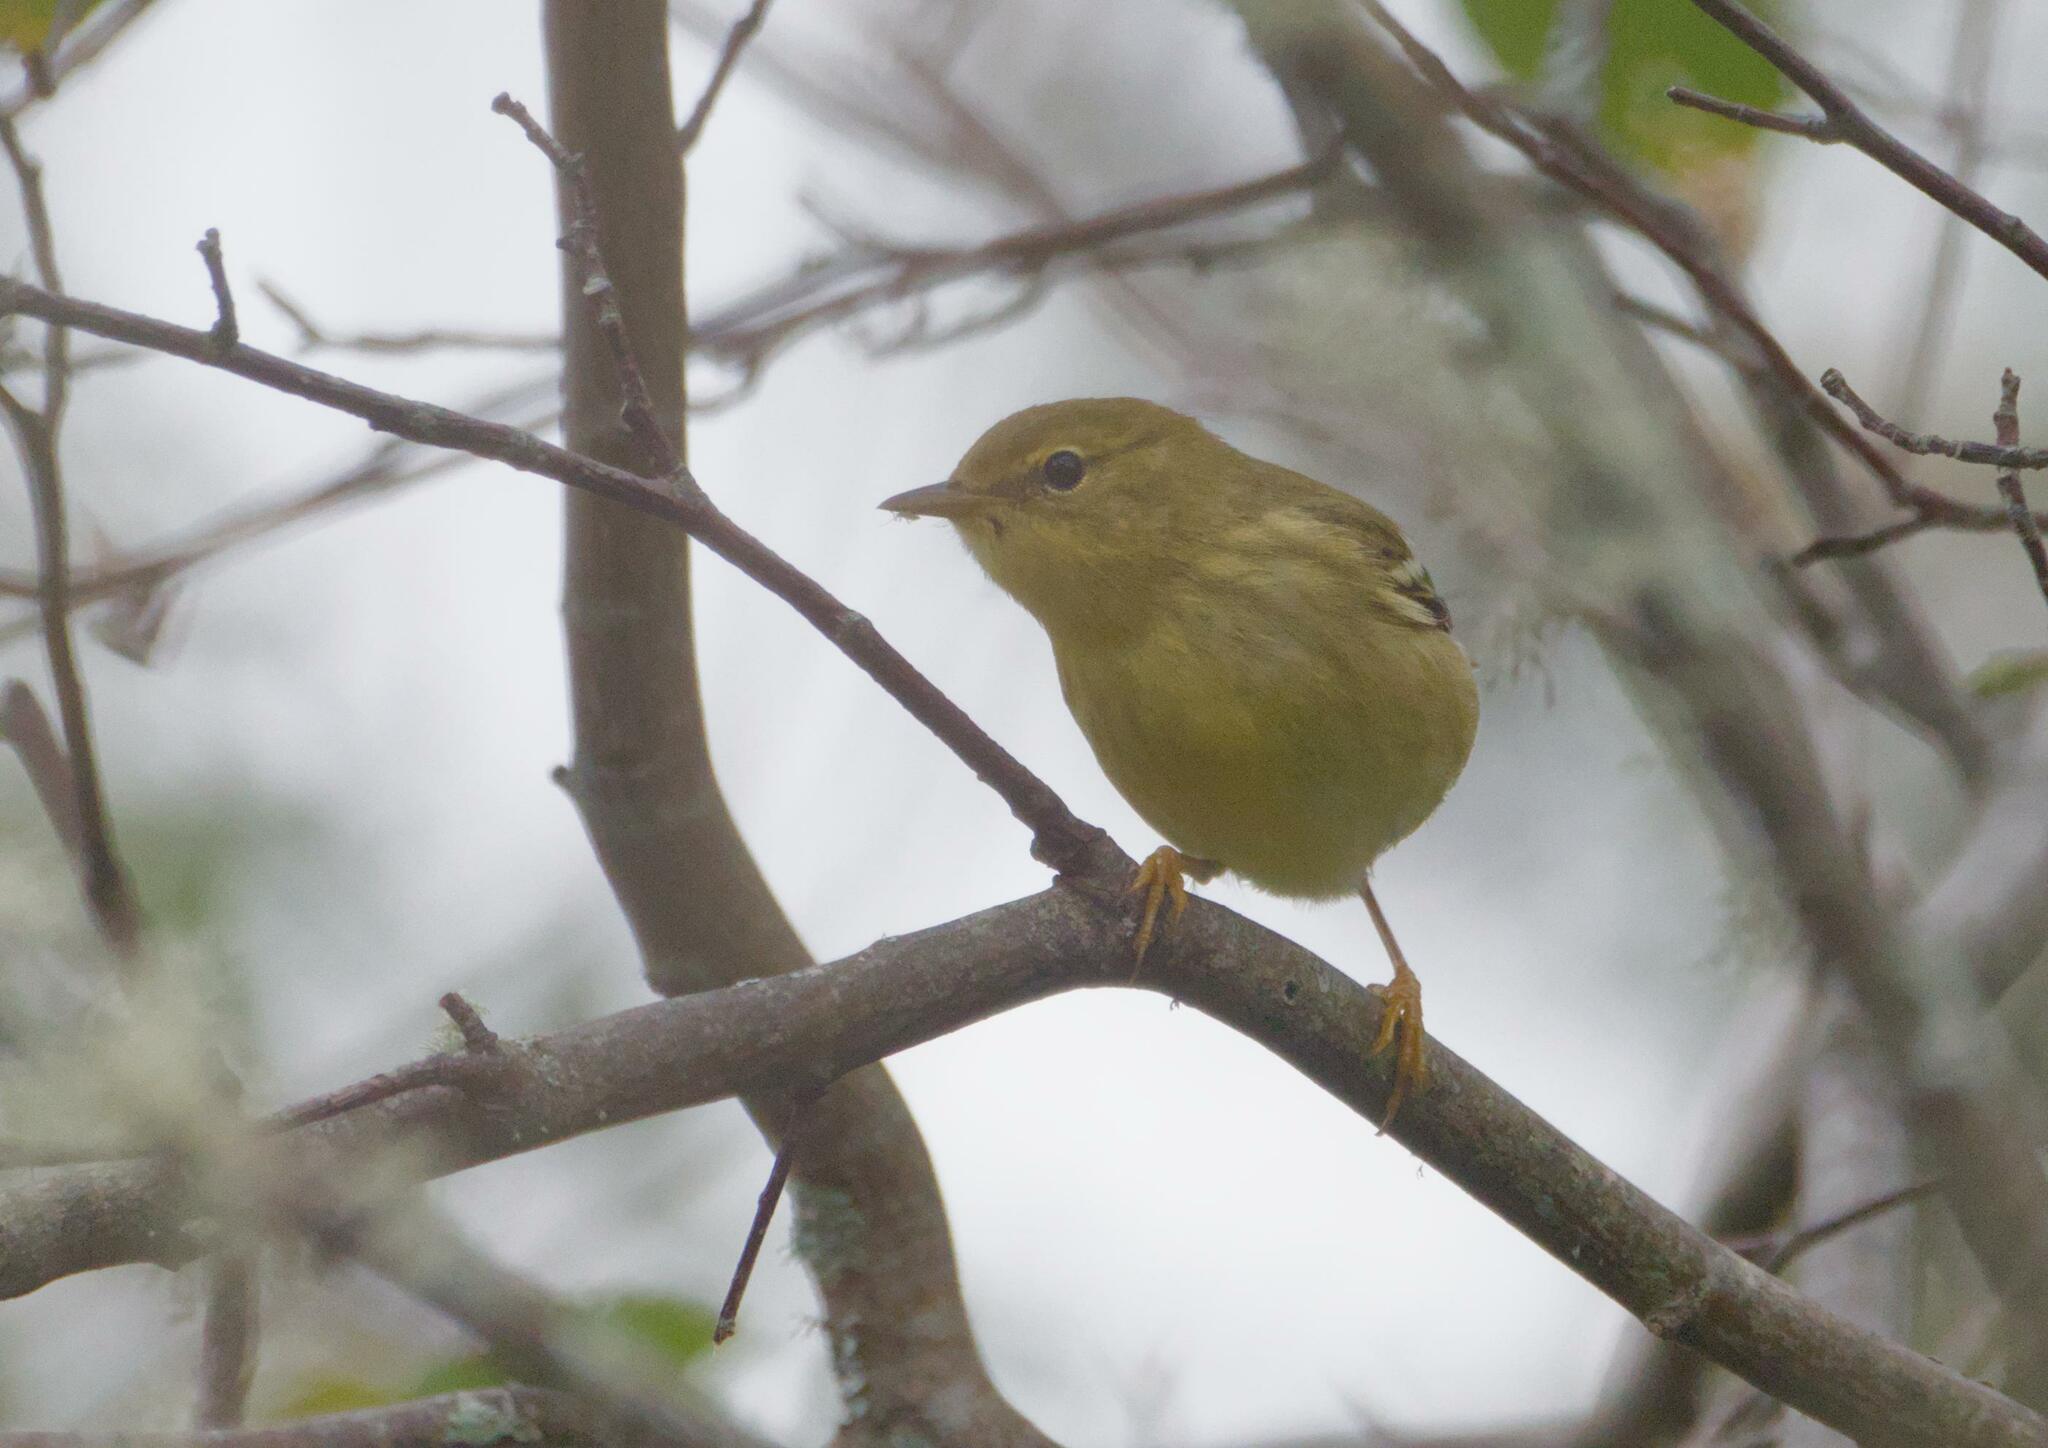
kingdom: Animalia
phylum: Chordata
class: Aves
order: Passeriformes
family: Parulidae
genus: Setophaga
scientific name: Setophaga striata
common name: Blackpoll warbler
